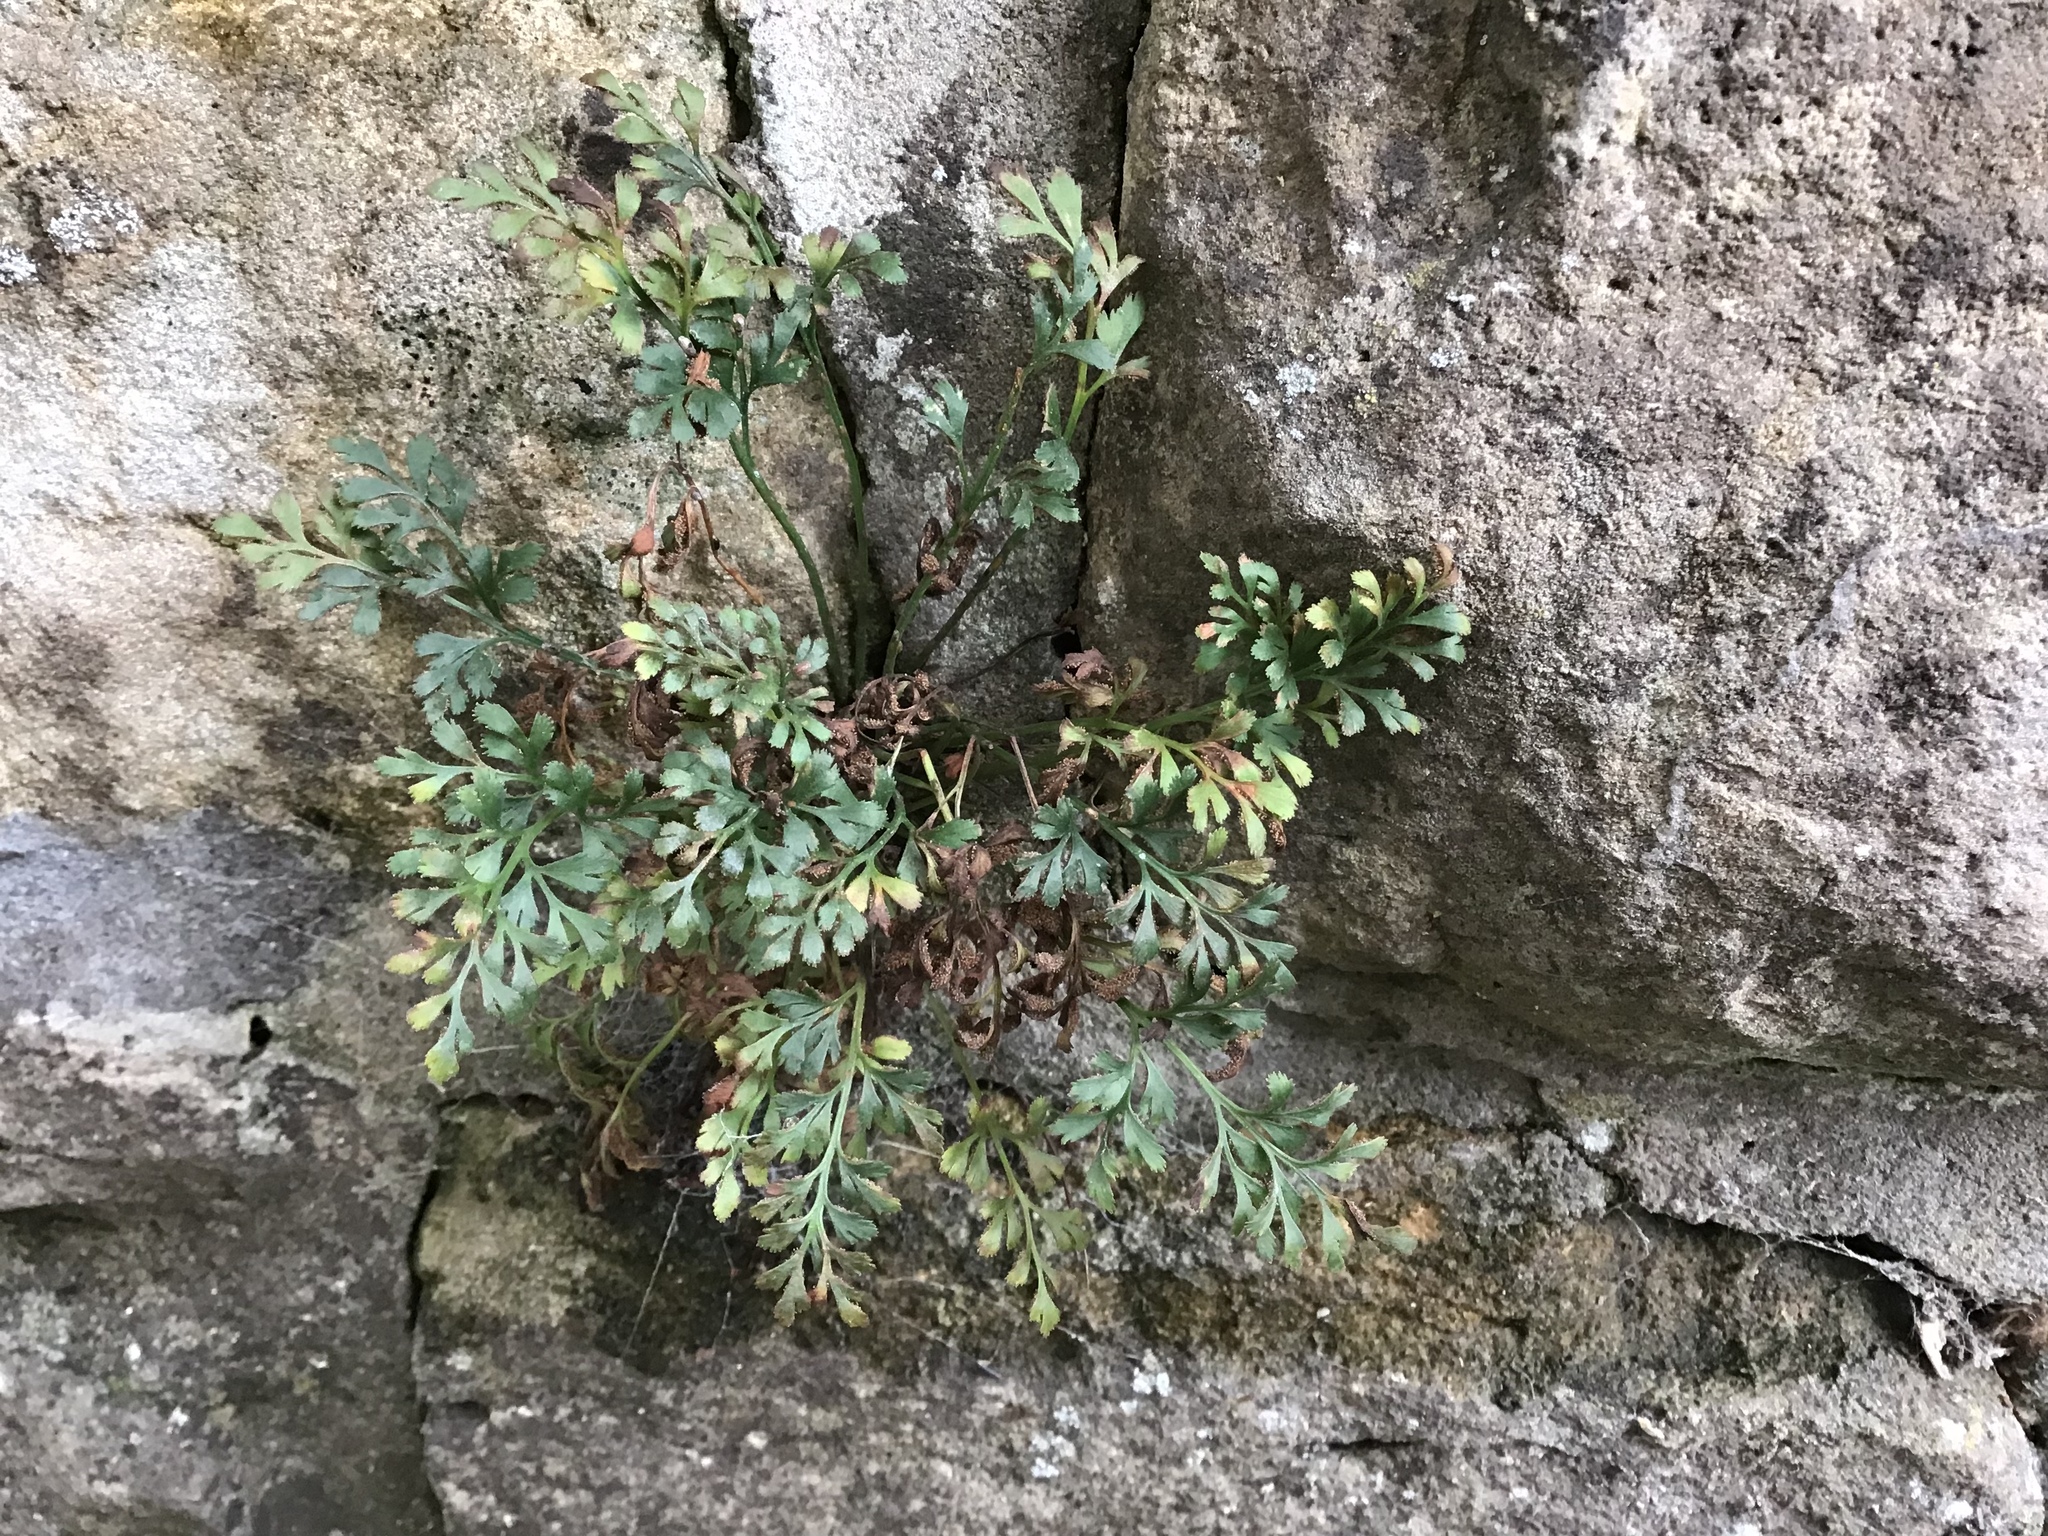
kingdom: Plantae
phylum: Tracheophyta
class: Polypodiopsida
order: Polypodiales
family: Aspleniaceae
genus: Asplenium
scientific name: Asplenium ruta-muraria
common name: Wall-rue
